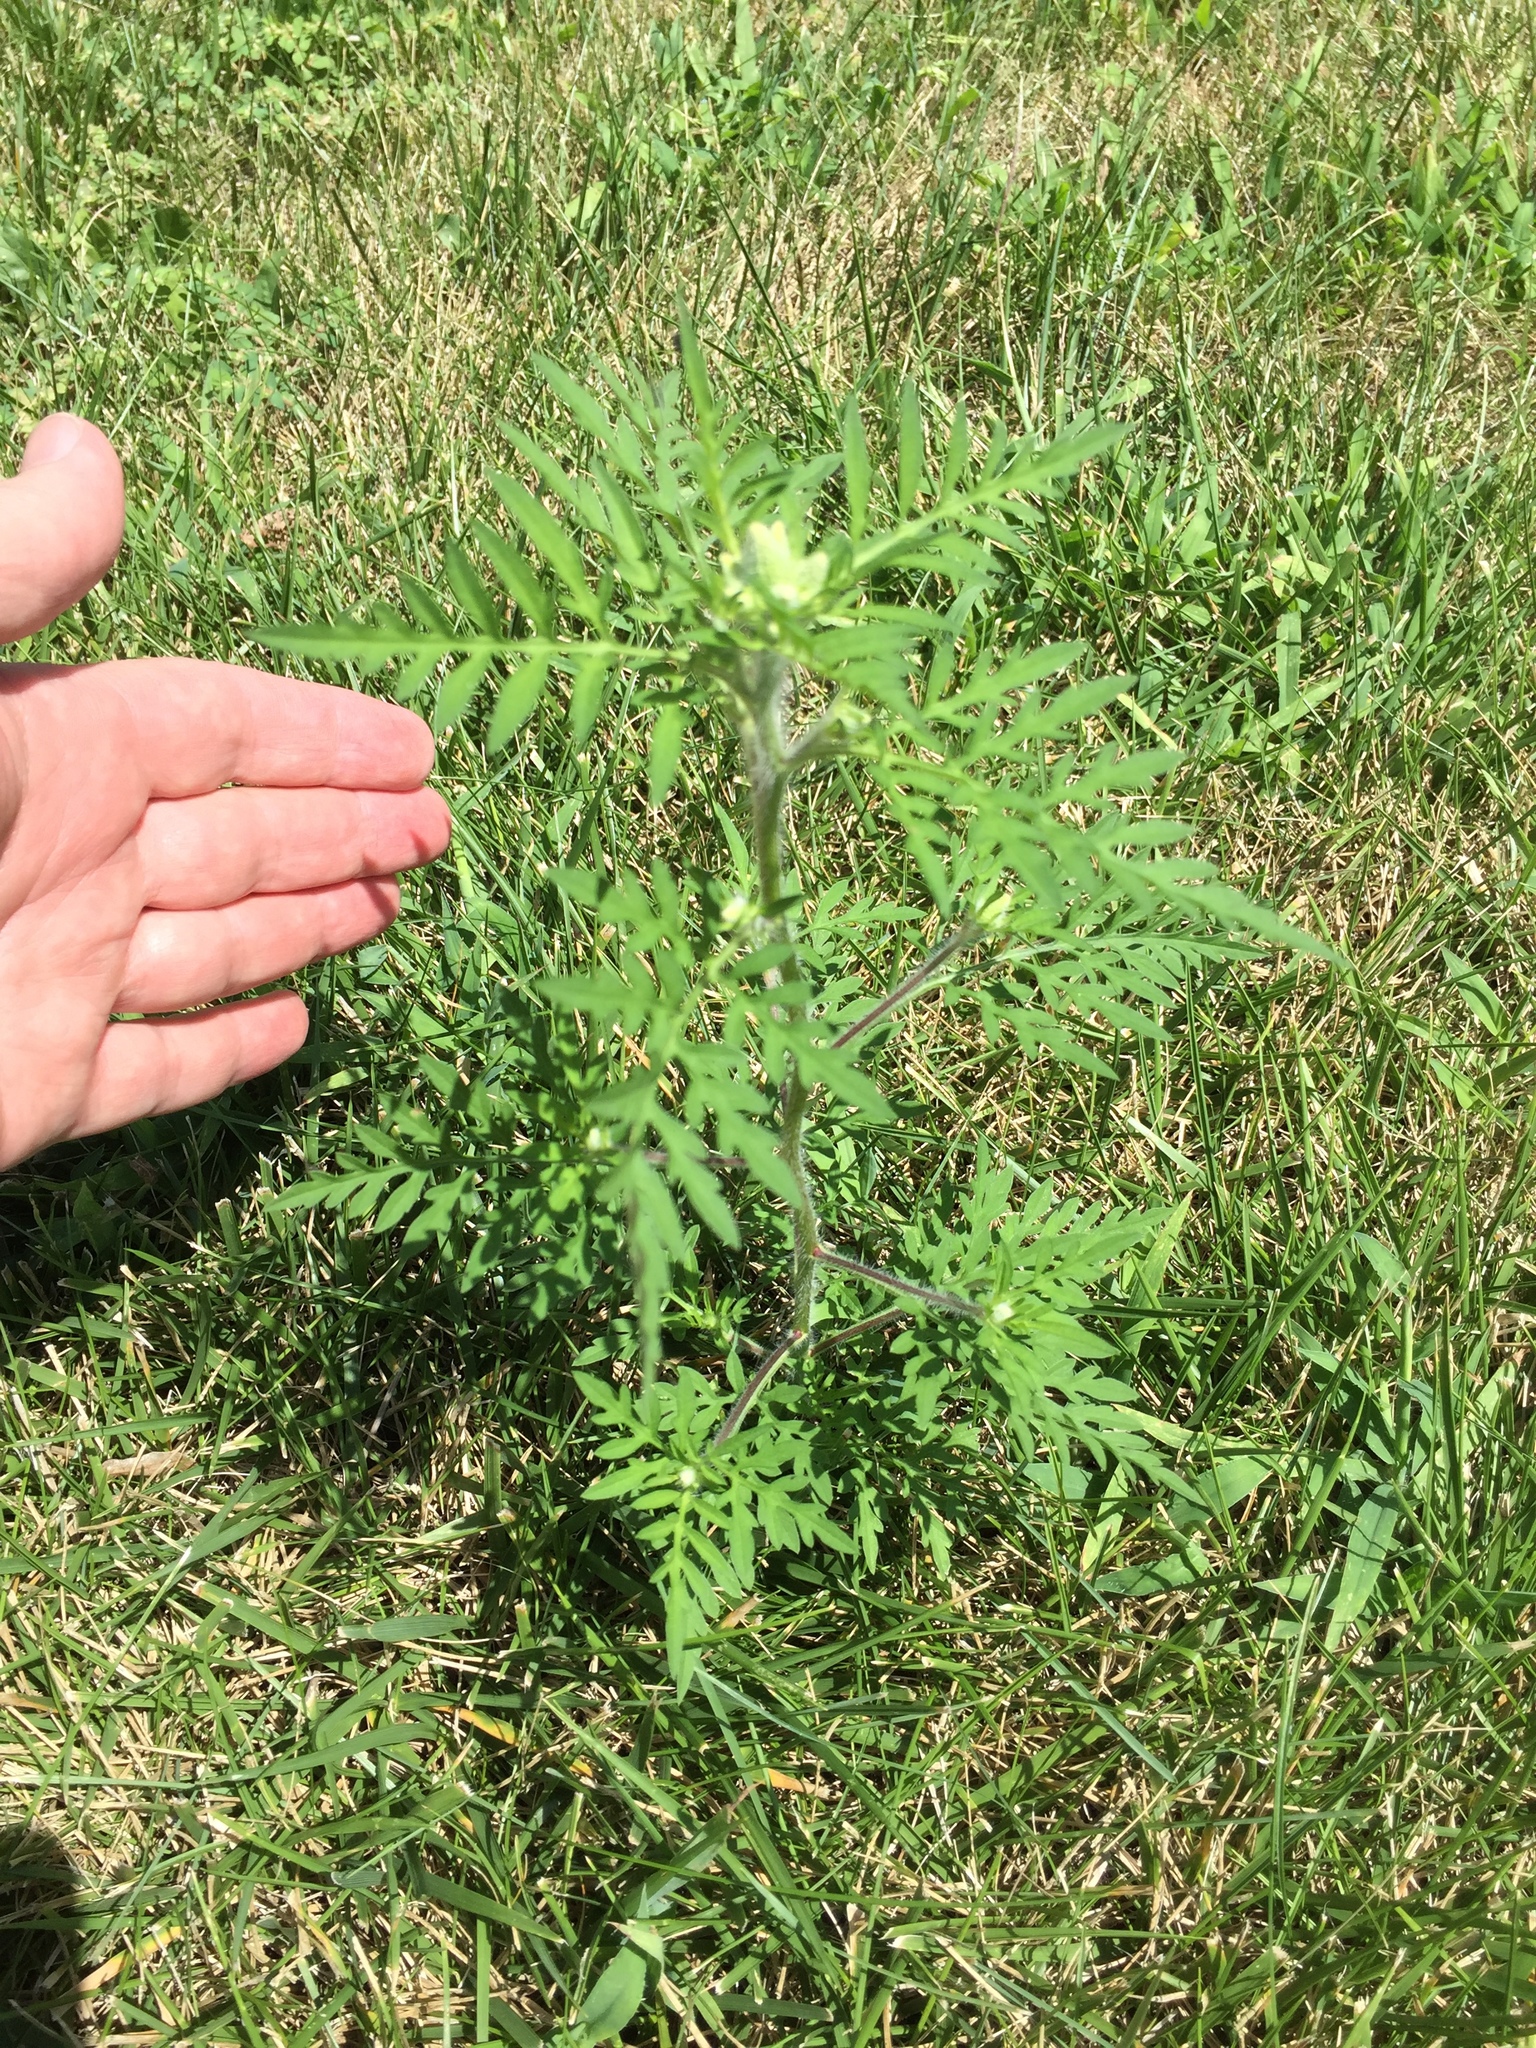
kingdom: Plantae
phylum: Tracheophyta
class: Magnoliopsida
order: Asterales
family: Asteraceae
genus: Ambrosia
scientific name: Ambrosia artemisiifolia
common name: Annual ragweed
